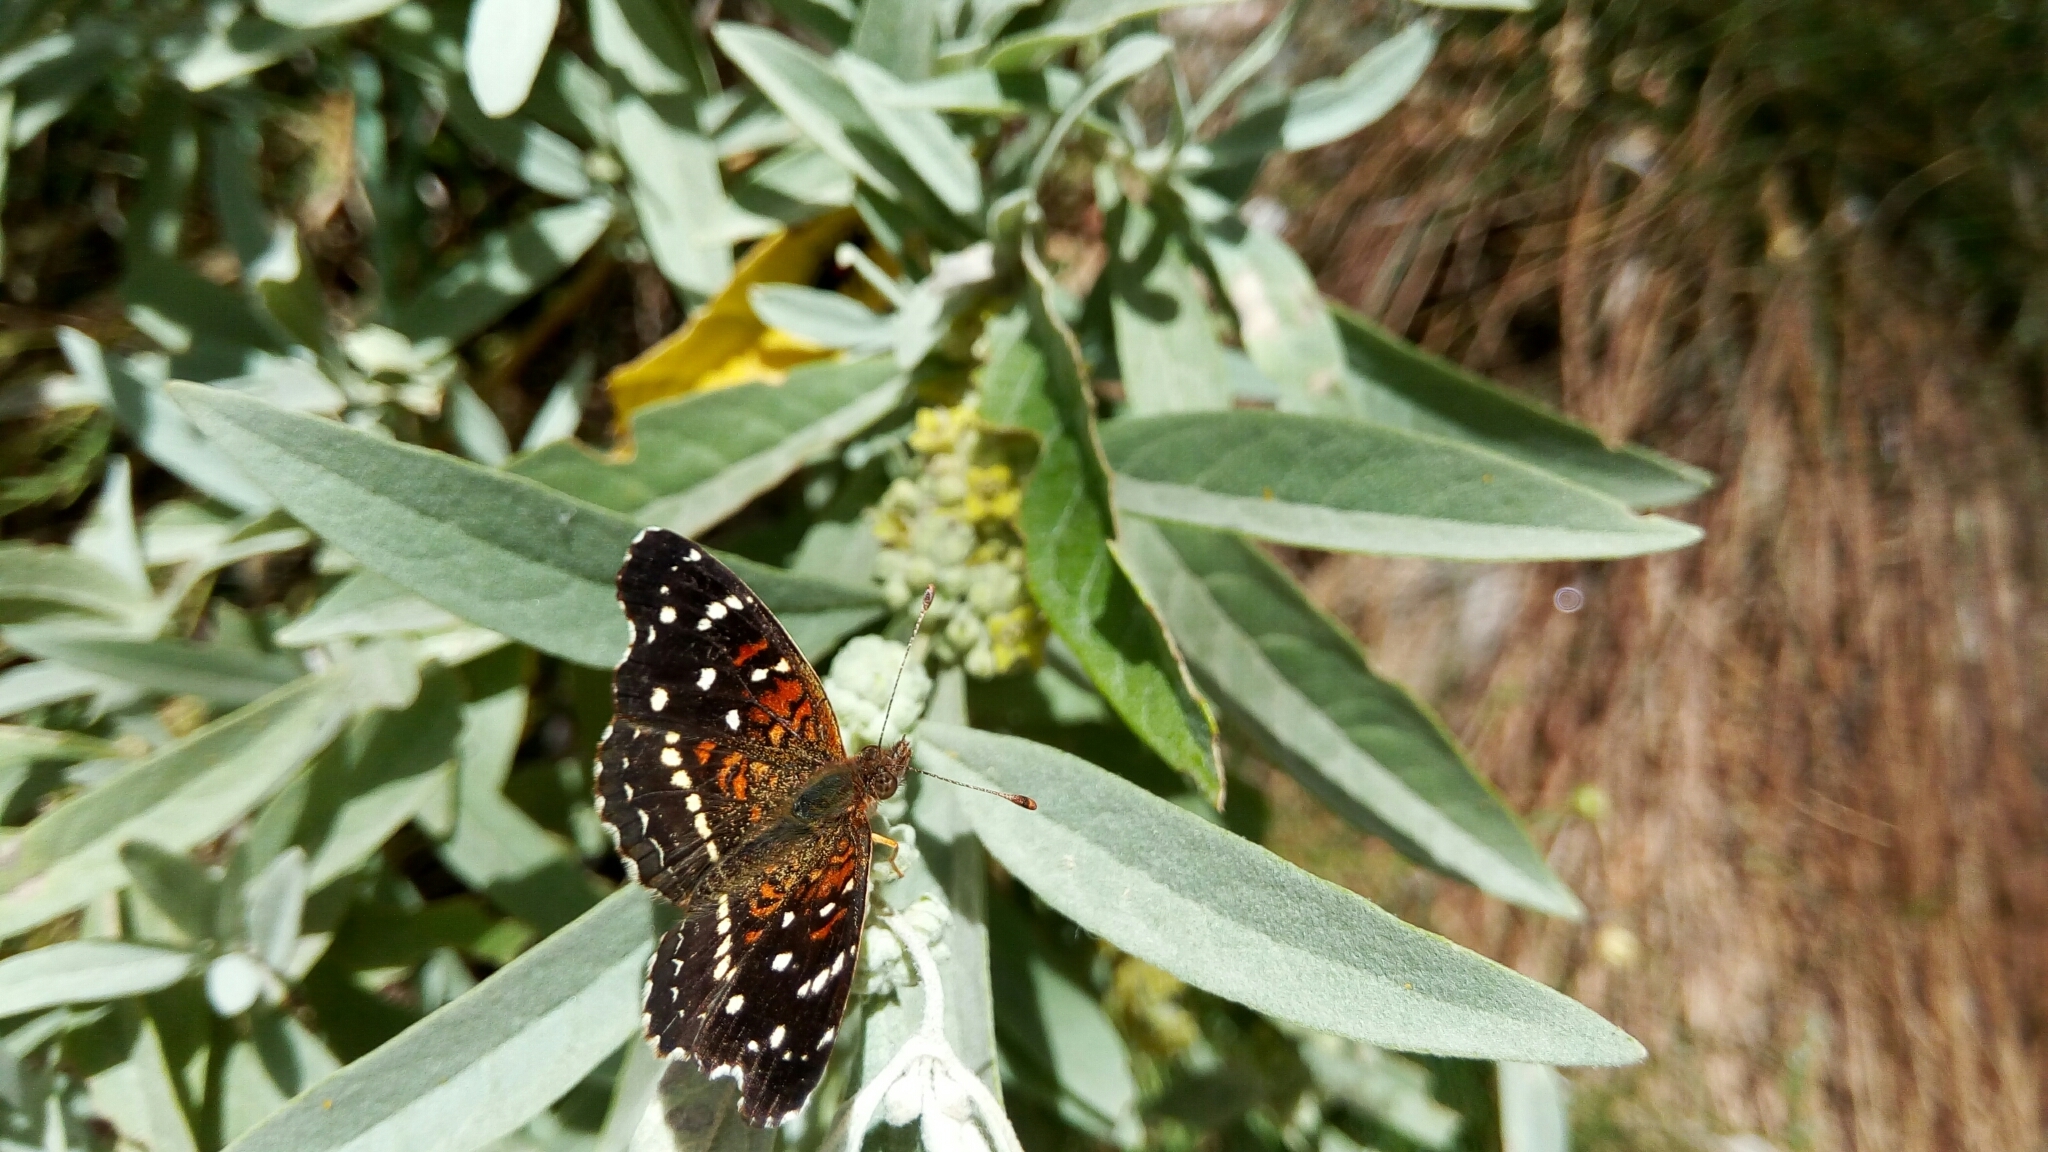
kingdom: Animalia
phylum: Arthropoda
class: Insecta
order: Lepidoptera
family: Nymphalidae
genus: Anthanassa
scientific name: Anthanassa texana
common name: Texan crescent
